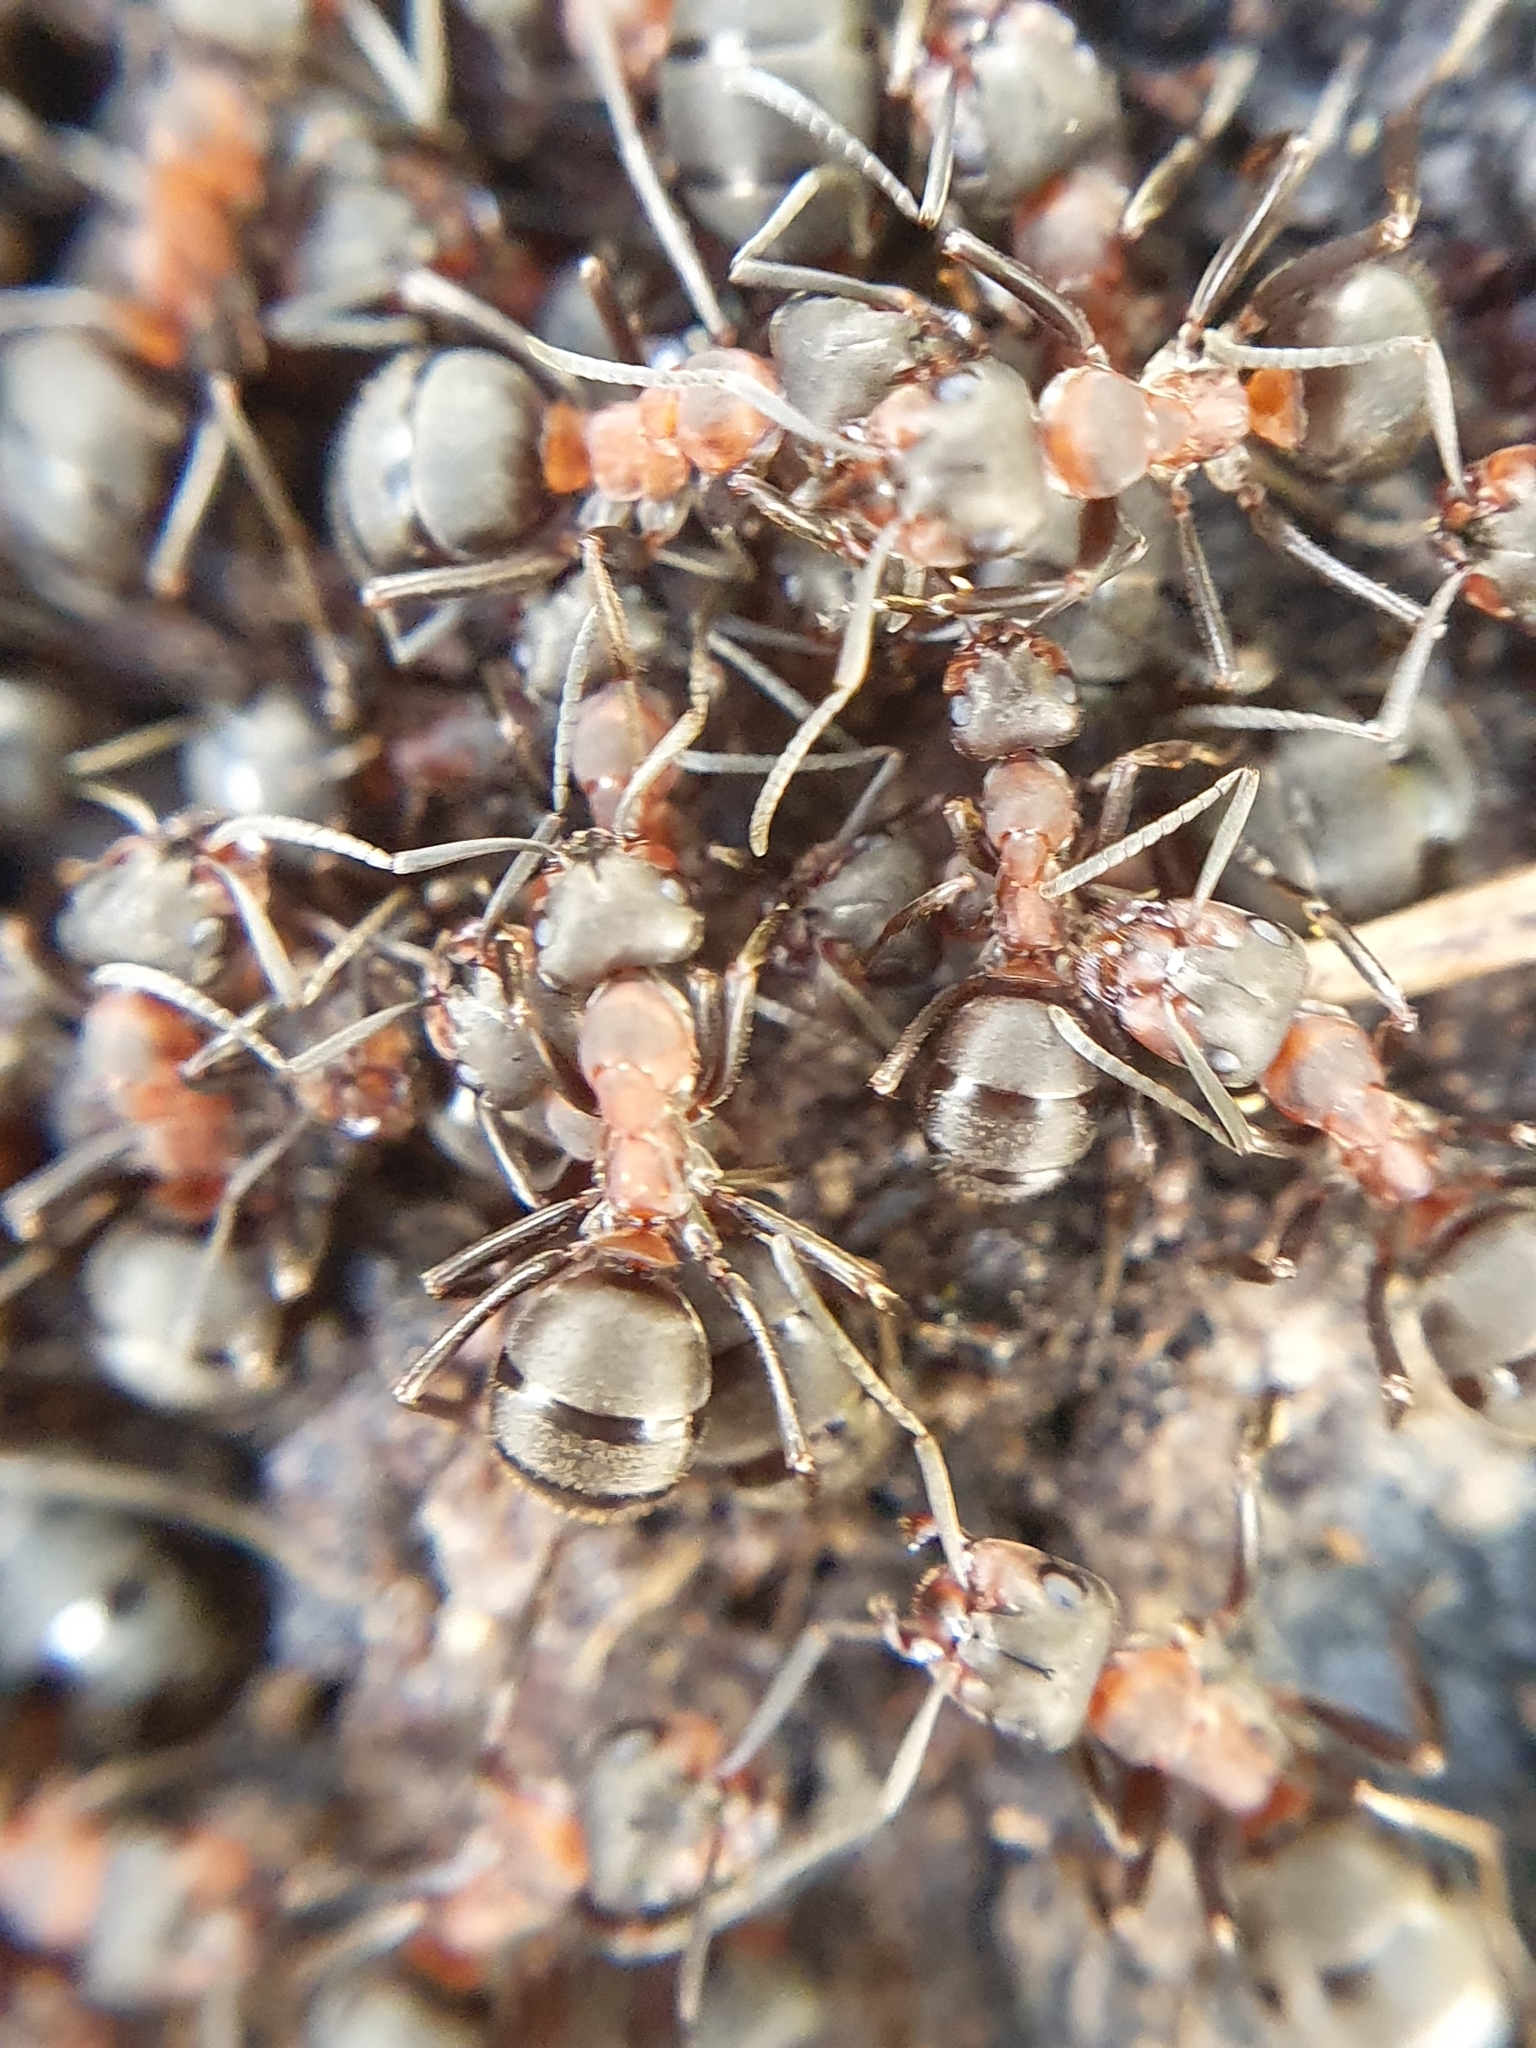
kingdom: Animalia
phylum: Arthropoda
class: Insecta
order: Hymenoptera
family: Formicidae
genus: Formica
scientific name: Formica
